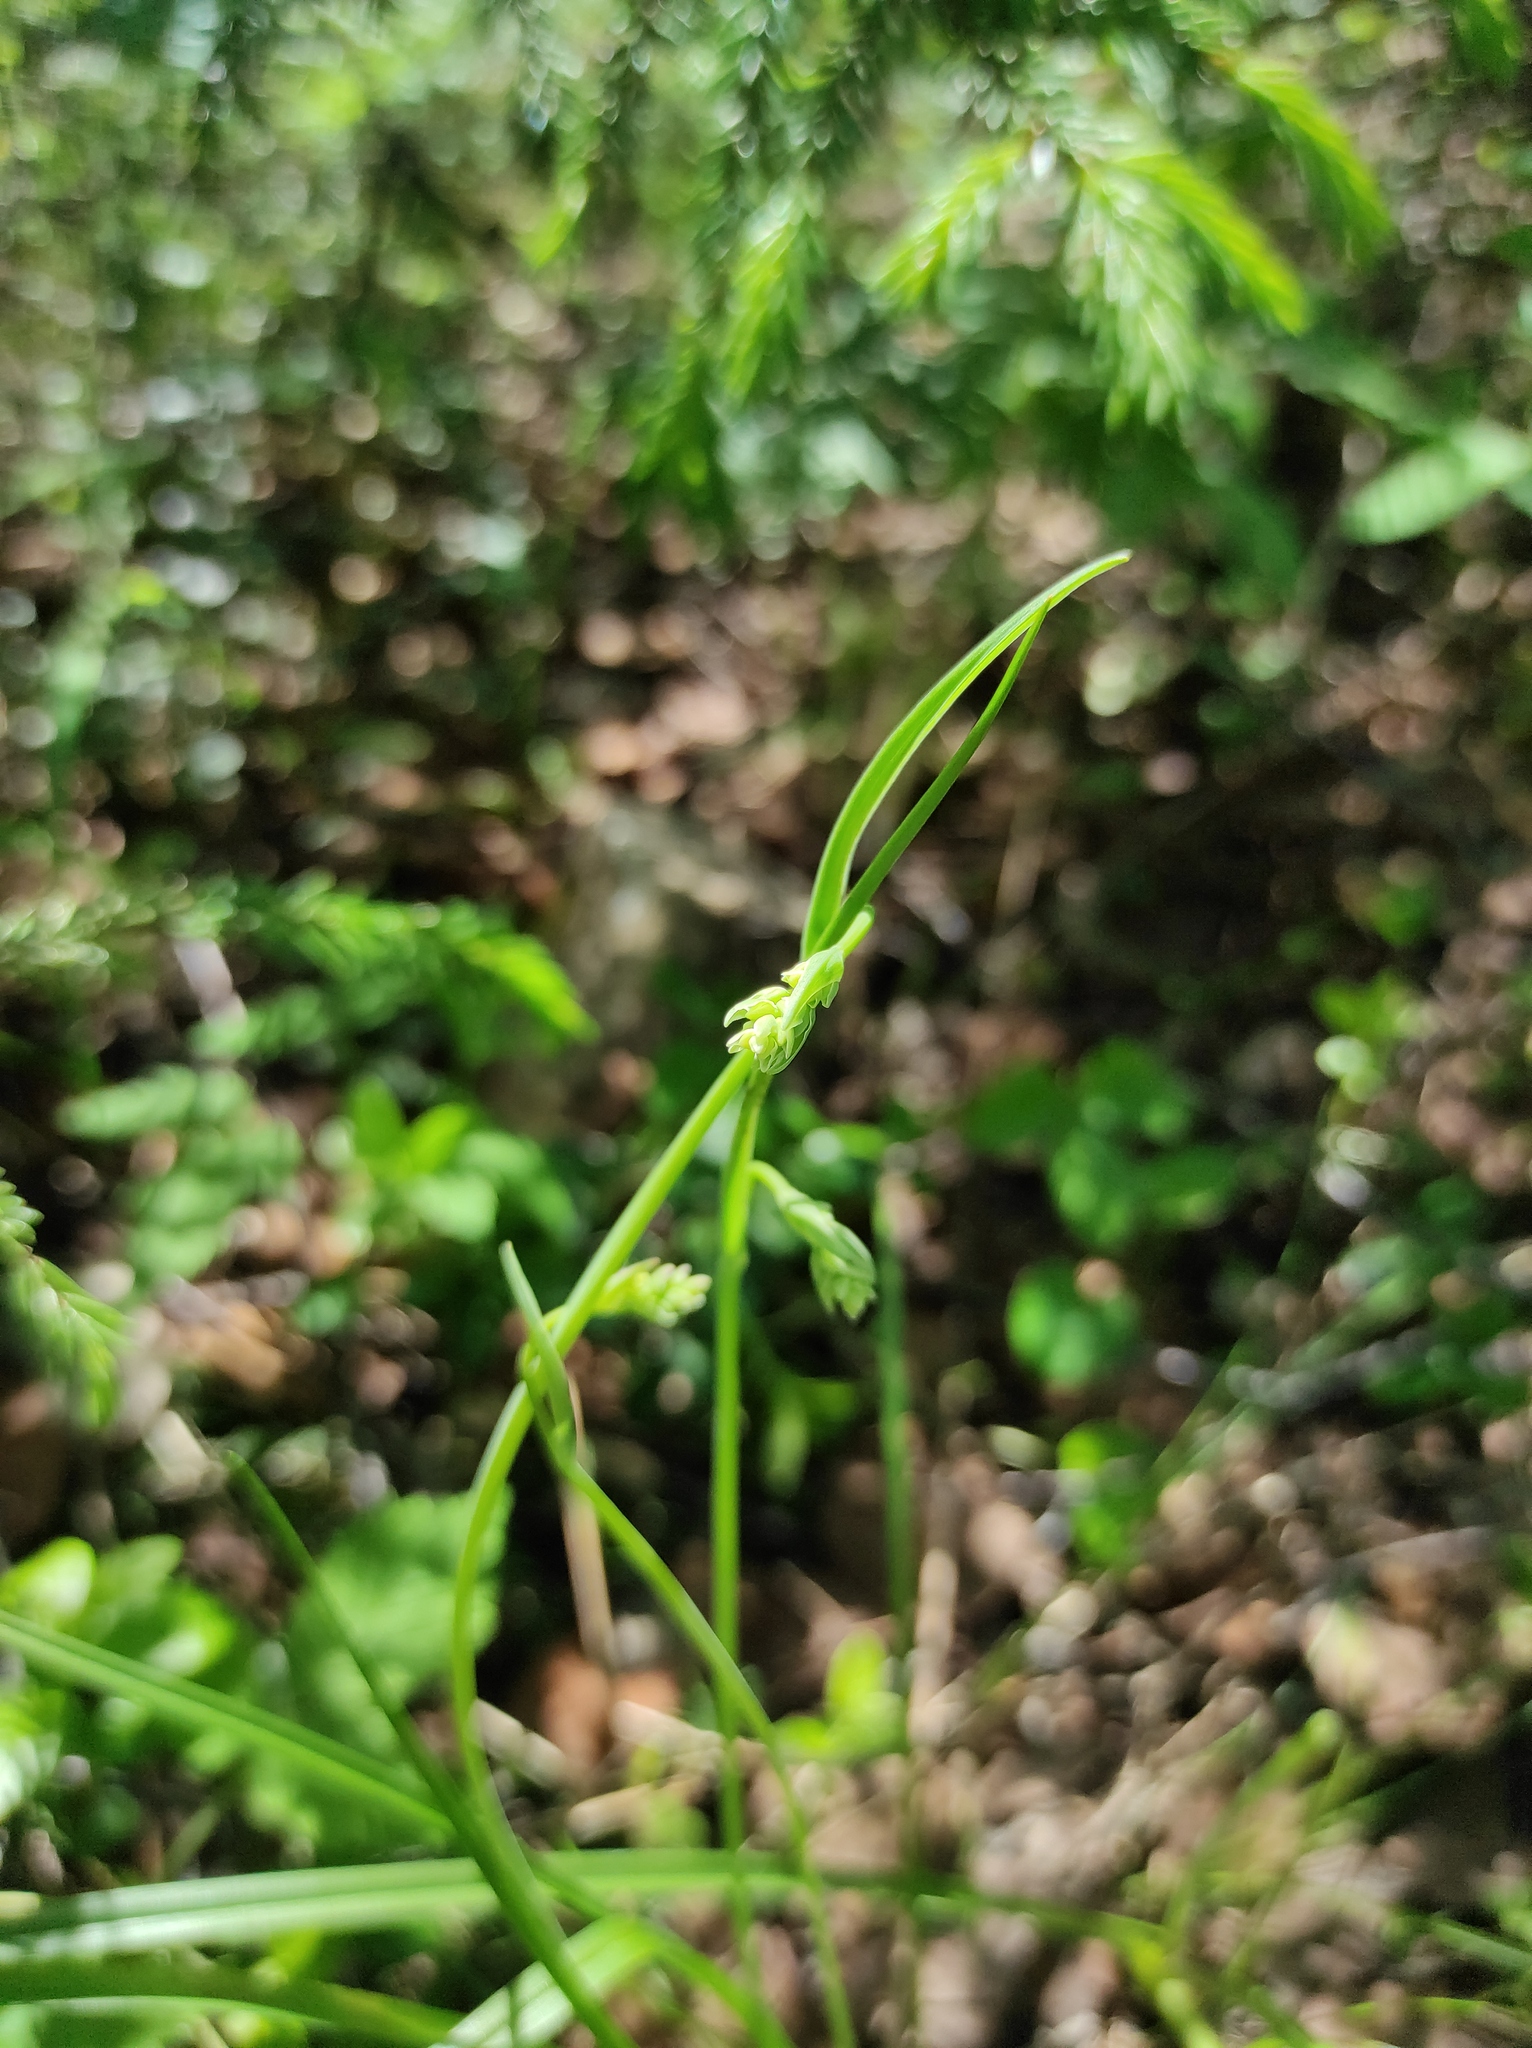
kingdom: Plantae
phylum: Tracheophyta
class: Liliopsida
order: Liliales
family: Melanthiaceae
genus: Anticlea
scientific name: Anticlea sibirica
